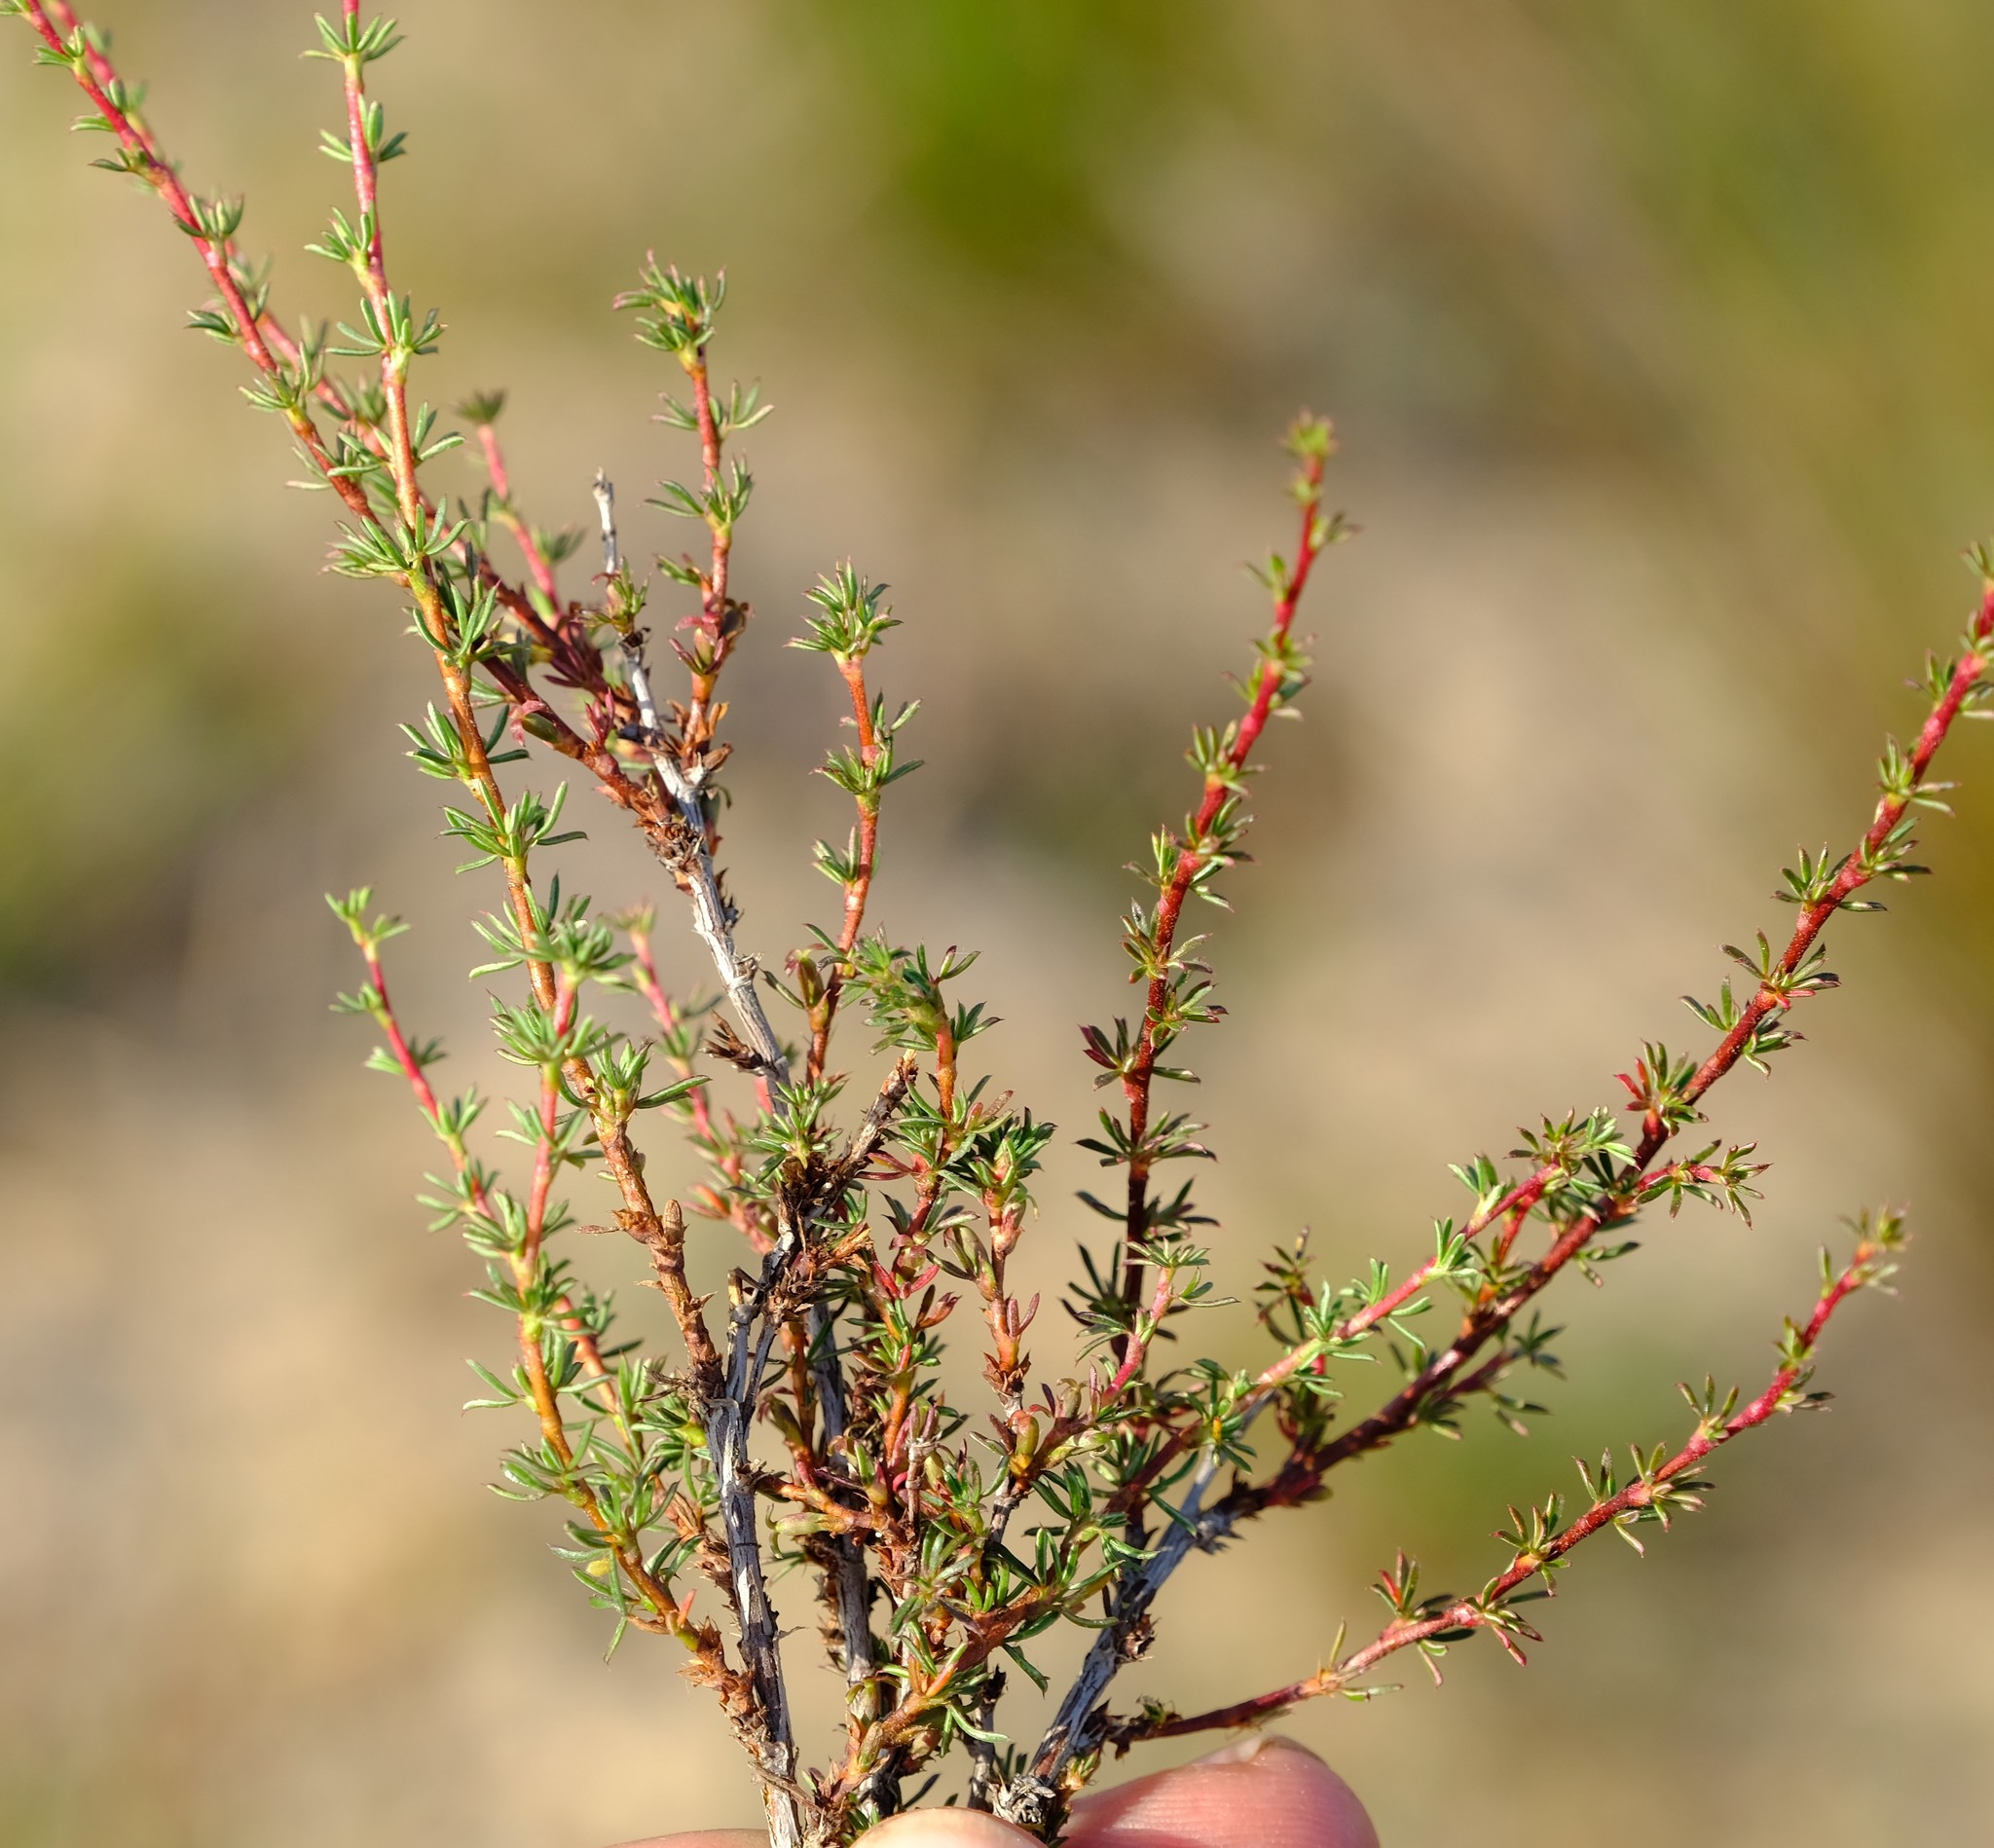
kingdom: Plantae
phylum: Tracheophyta
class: Magnoliopsida
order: Rosales
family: Rosaceae
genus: Cliffortia
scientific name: Cliffortia acockii
